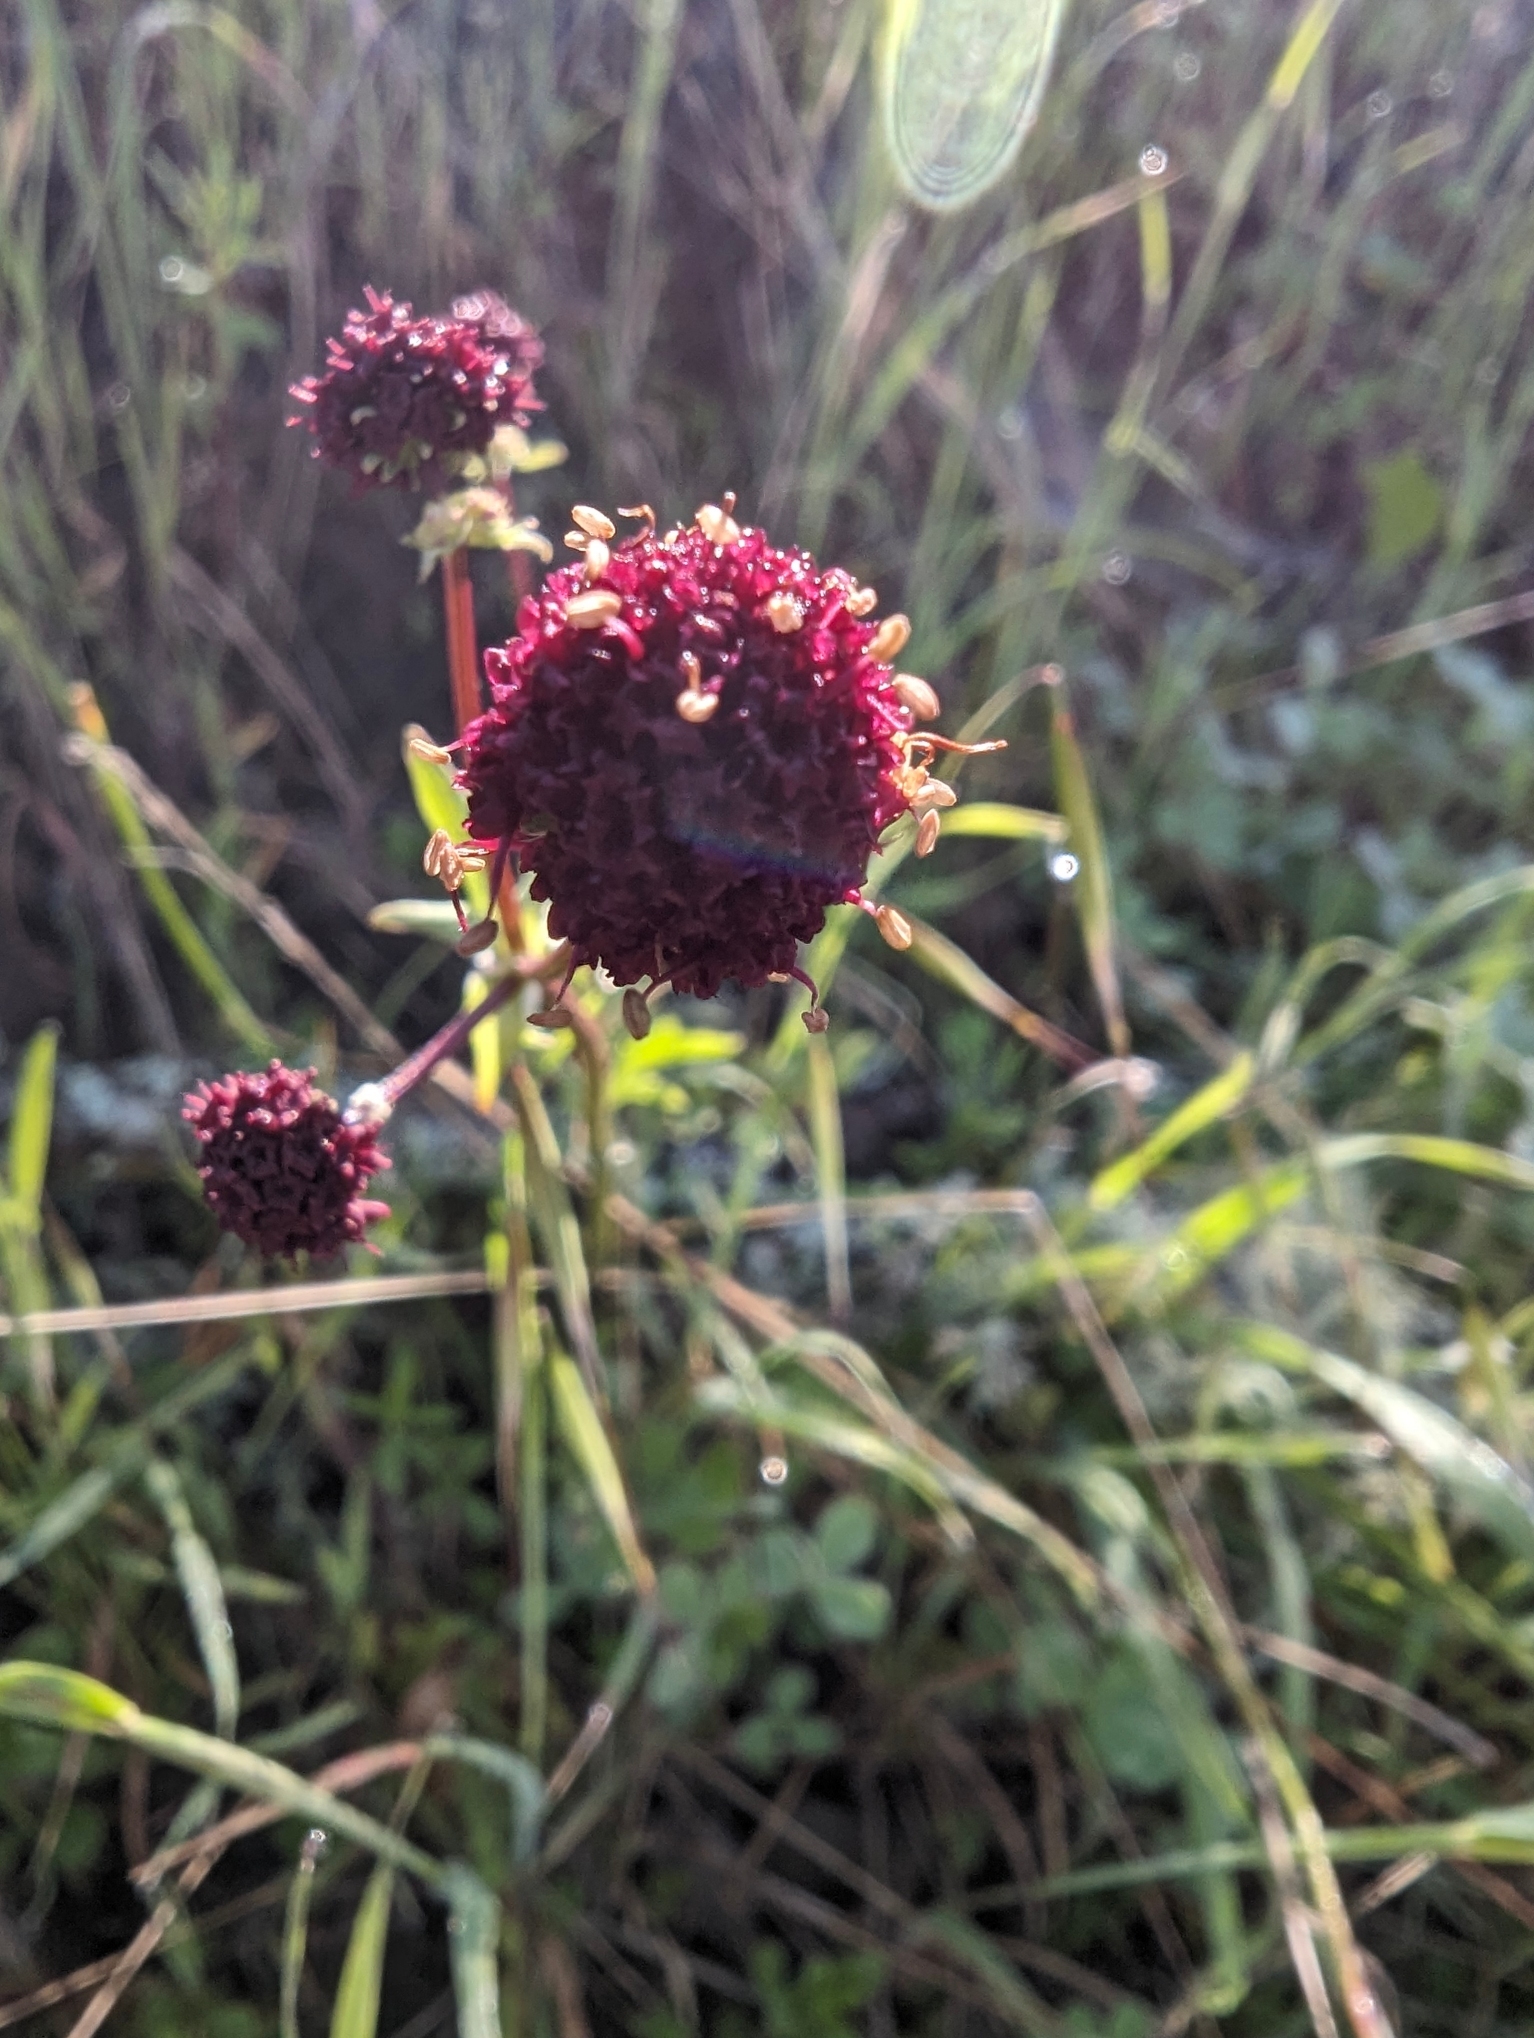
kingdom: Plantae
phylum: Tracheophyta
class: Magnoliopsida
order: Apiales
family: Apiaceae
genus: Sanicula
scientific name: Sanicula bipinnatifida
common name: Shoe-buttons
